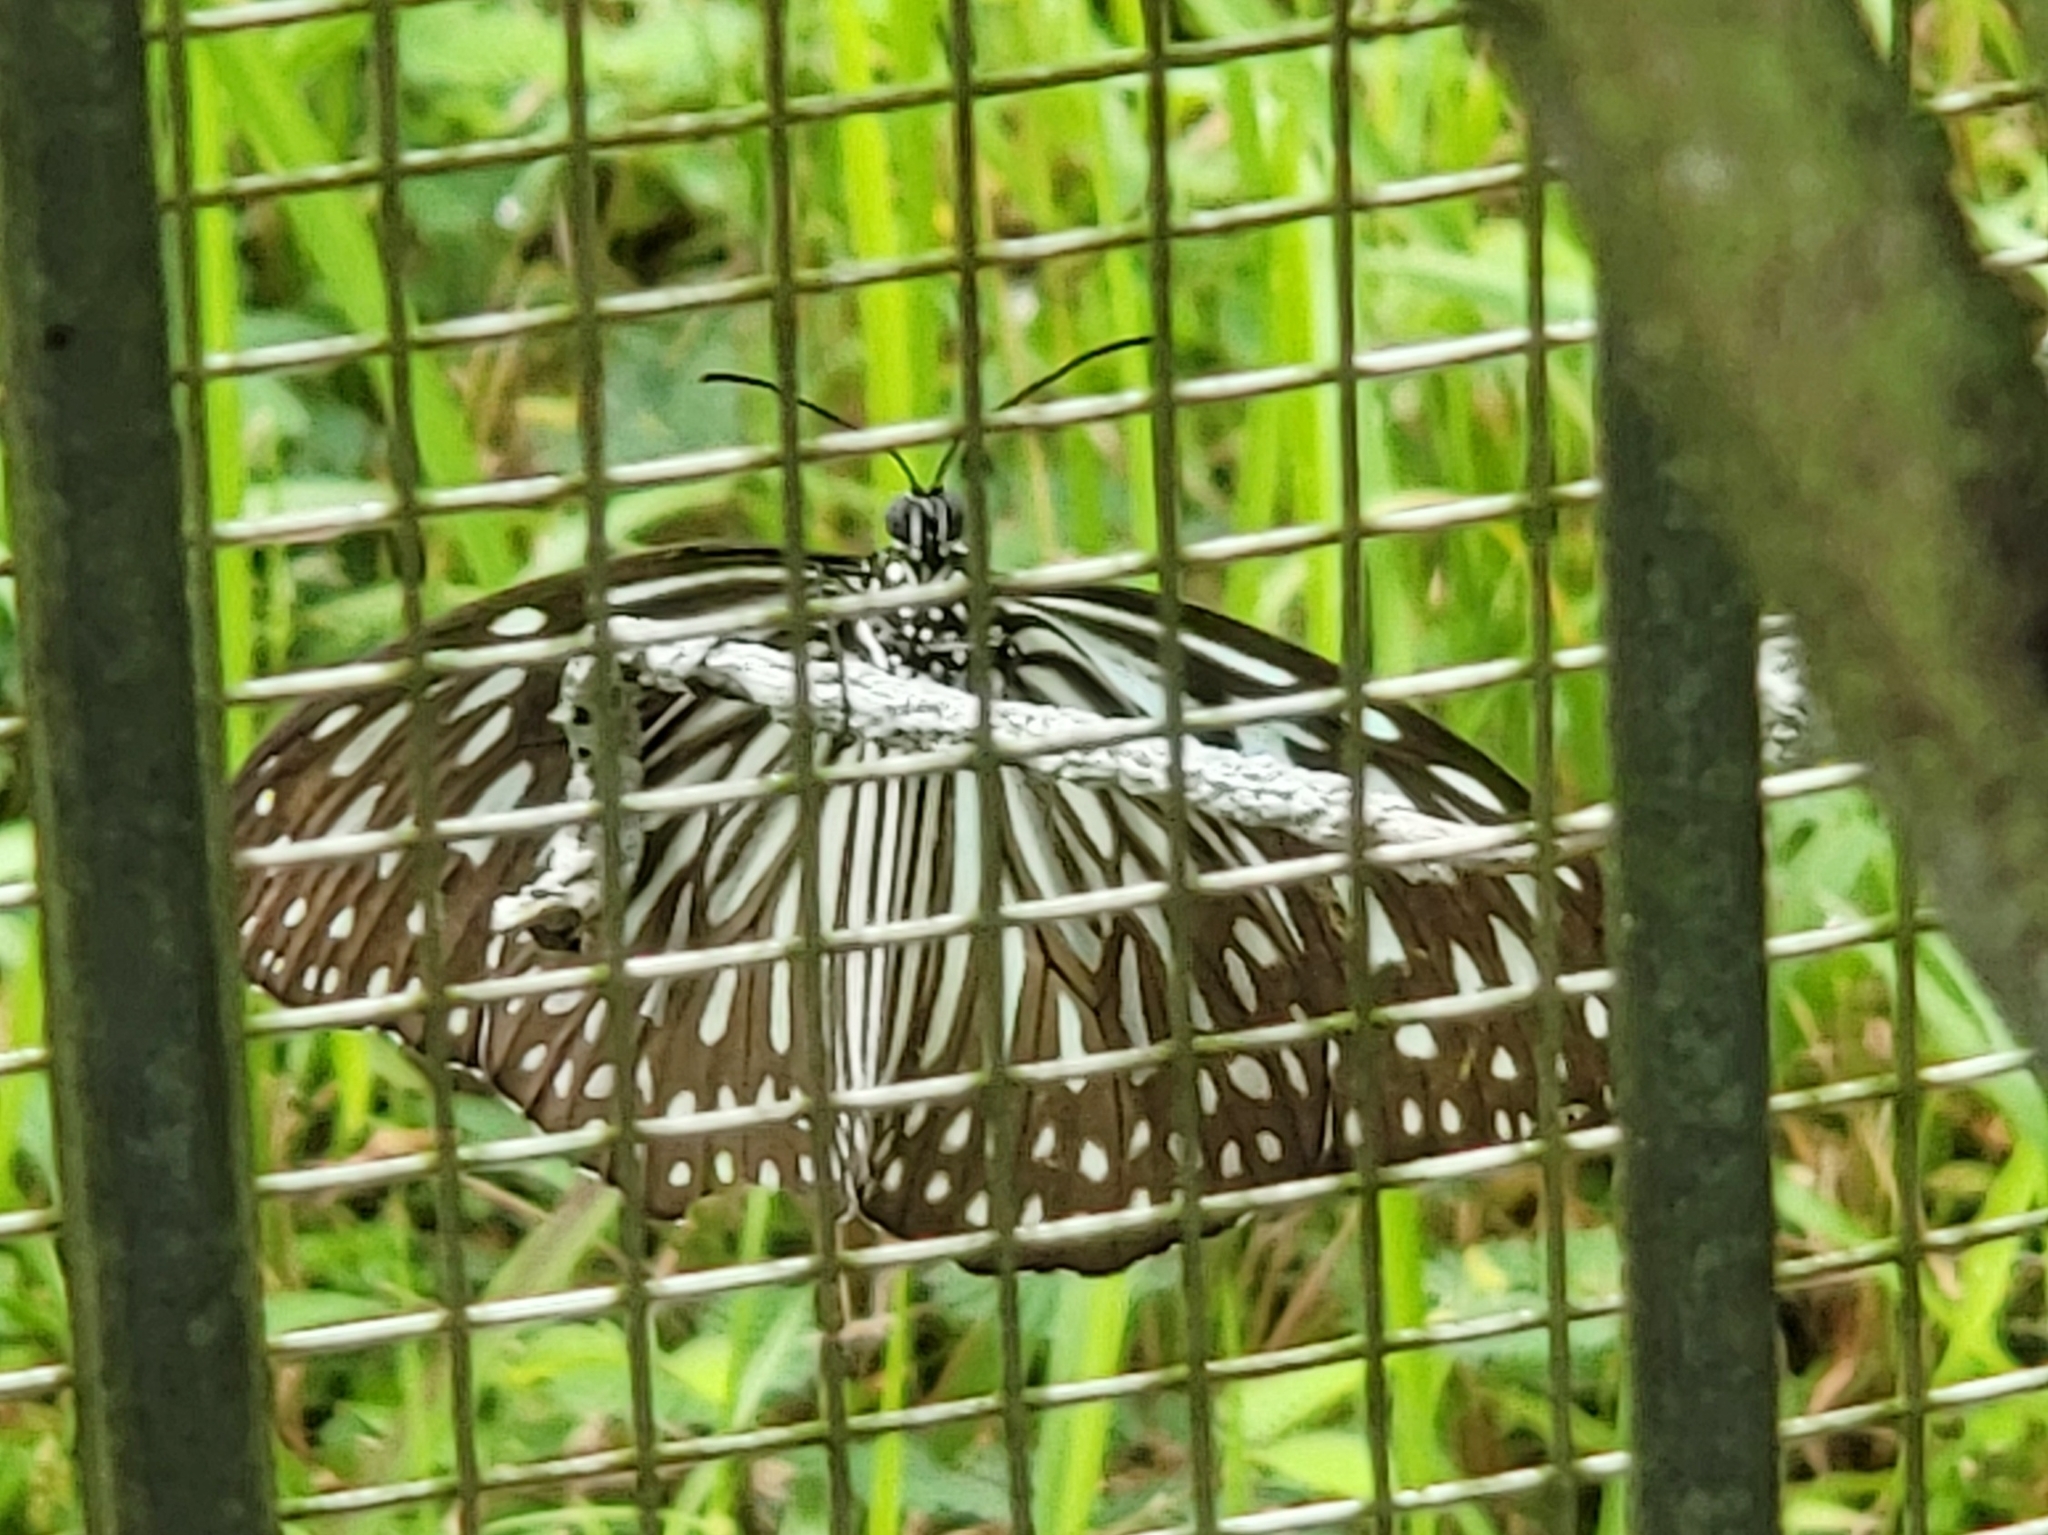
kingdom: Animalia
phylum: Arthropoda
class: Insecta
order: Lepidoptera
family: Nymphalidae
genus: Ideopsis
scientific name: Ideopsis vulgaris
